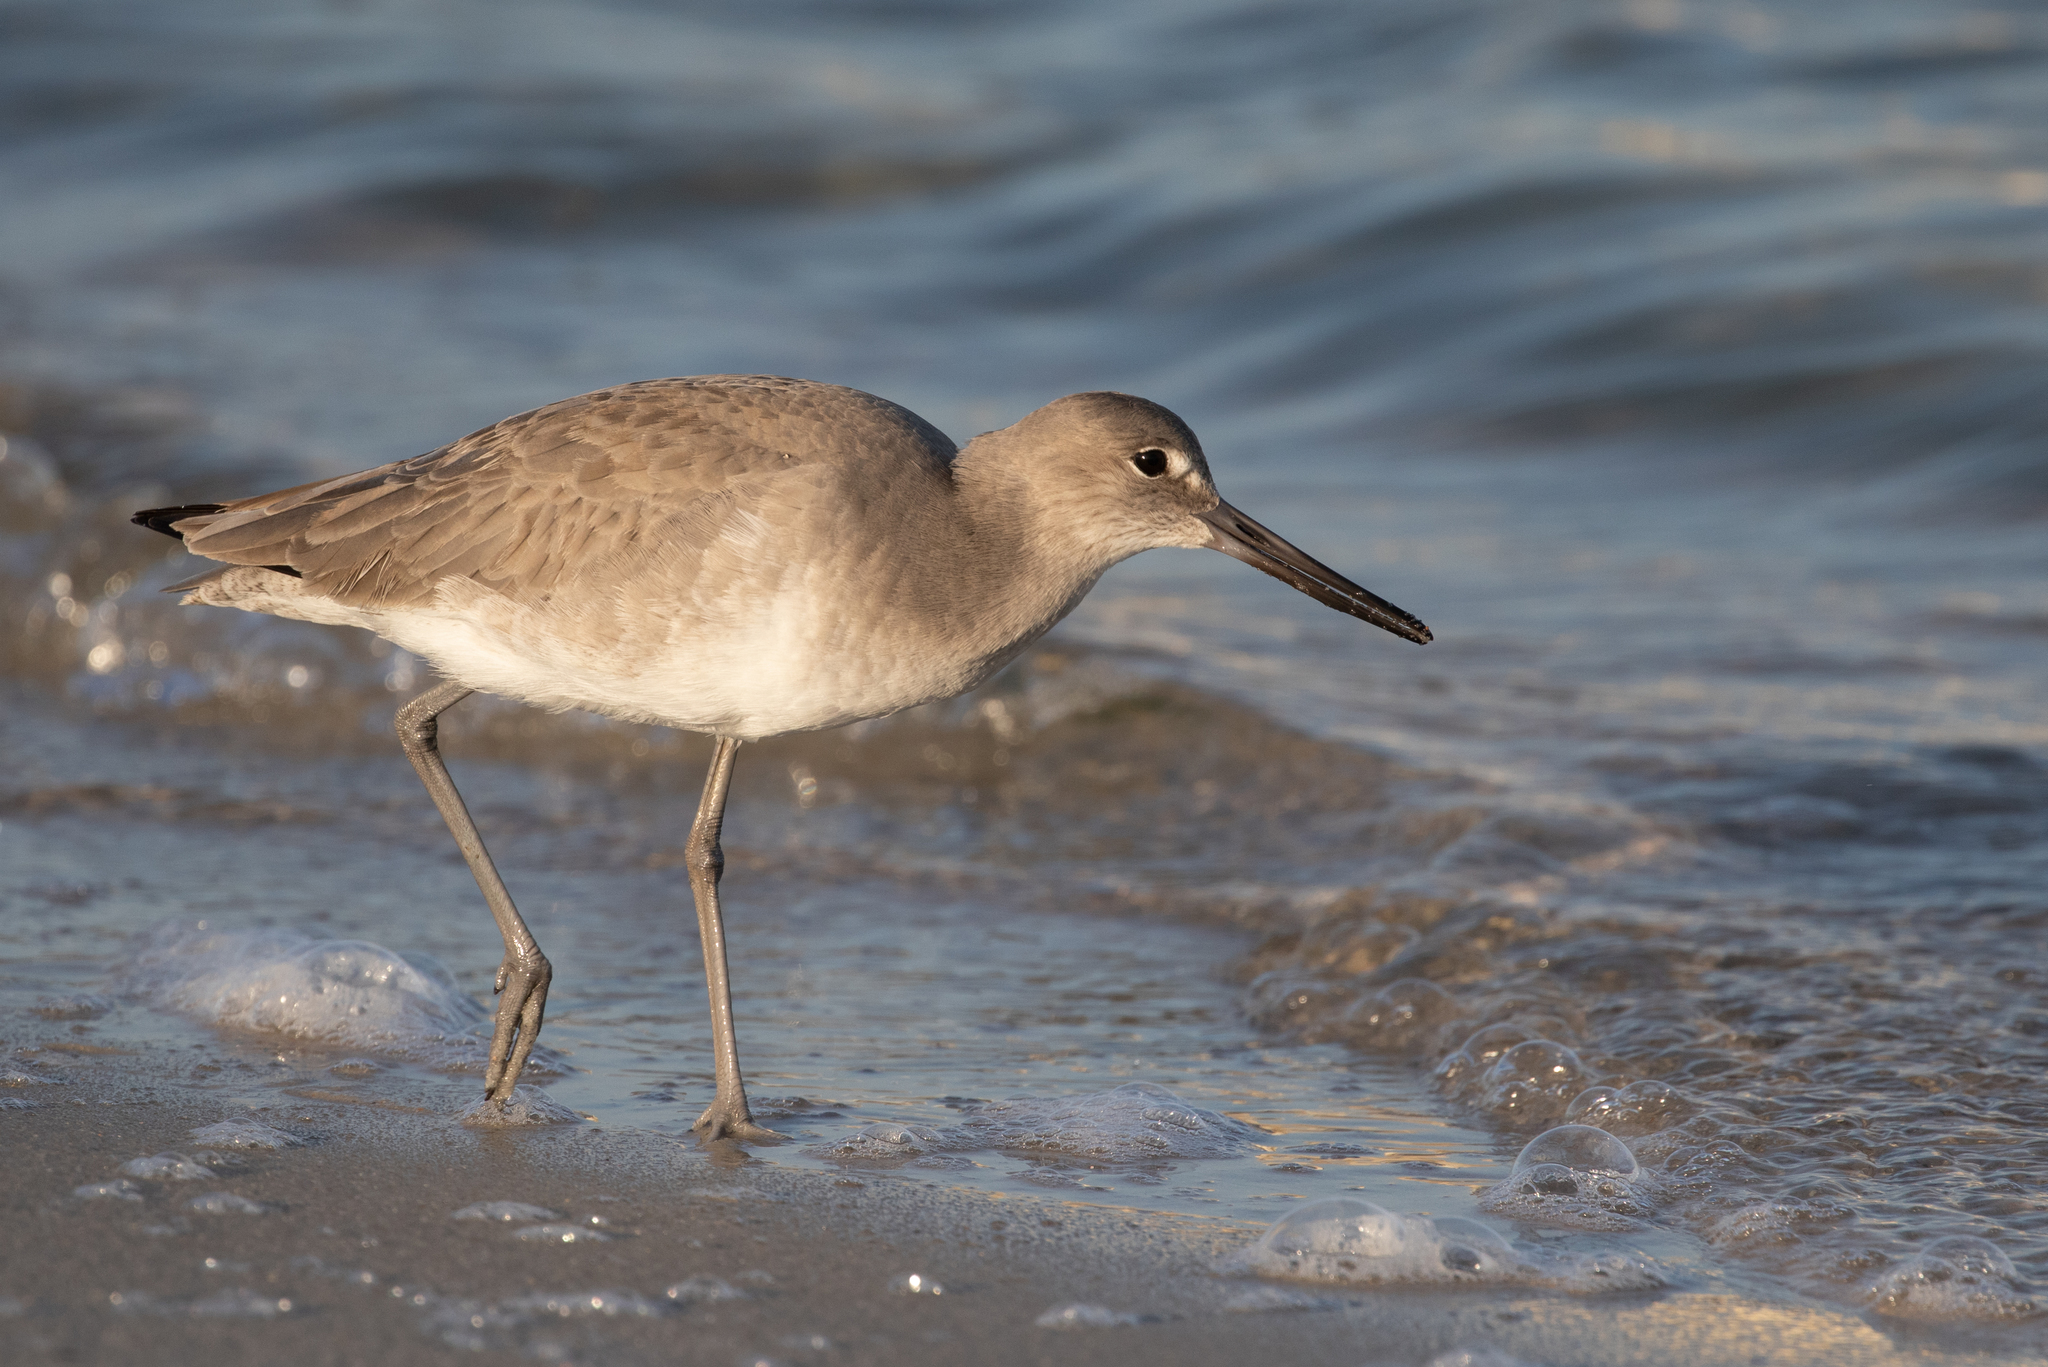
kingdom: Animalia
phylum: Chordata
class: Aves
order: Charadriiformes
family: Scolopacidae
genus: Tringa
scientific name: Tringa semipalmata
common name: Willet
